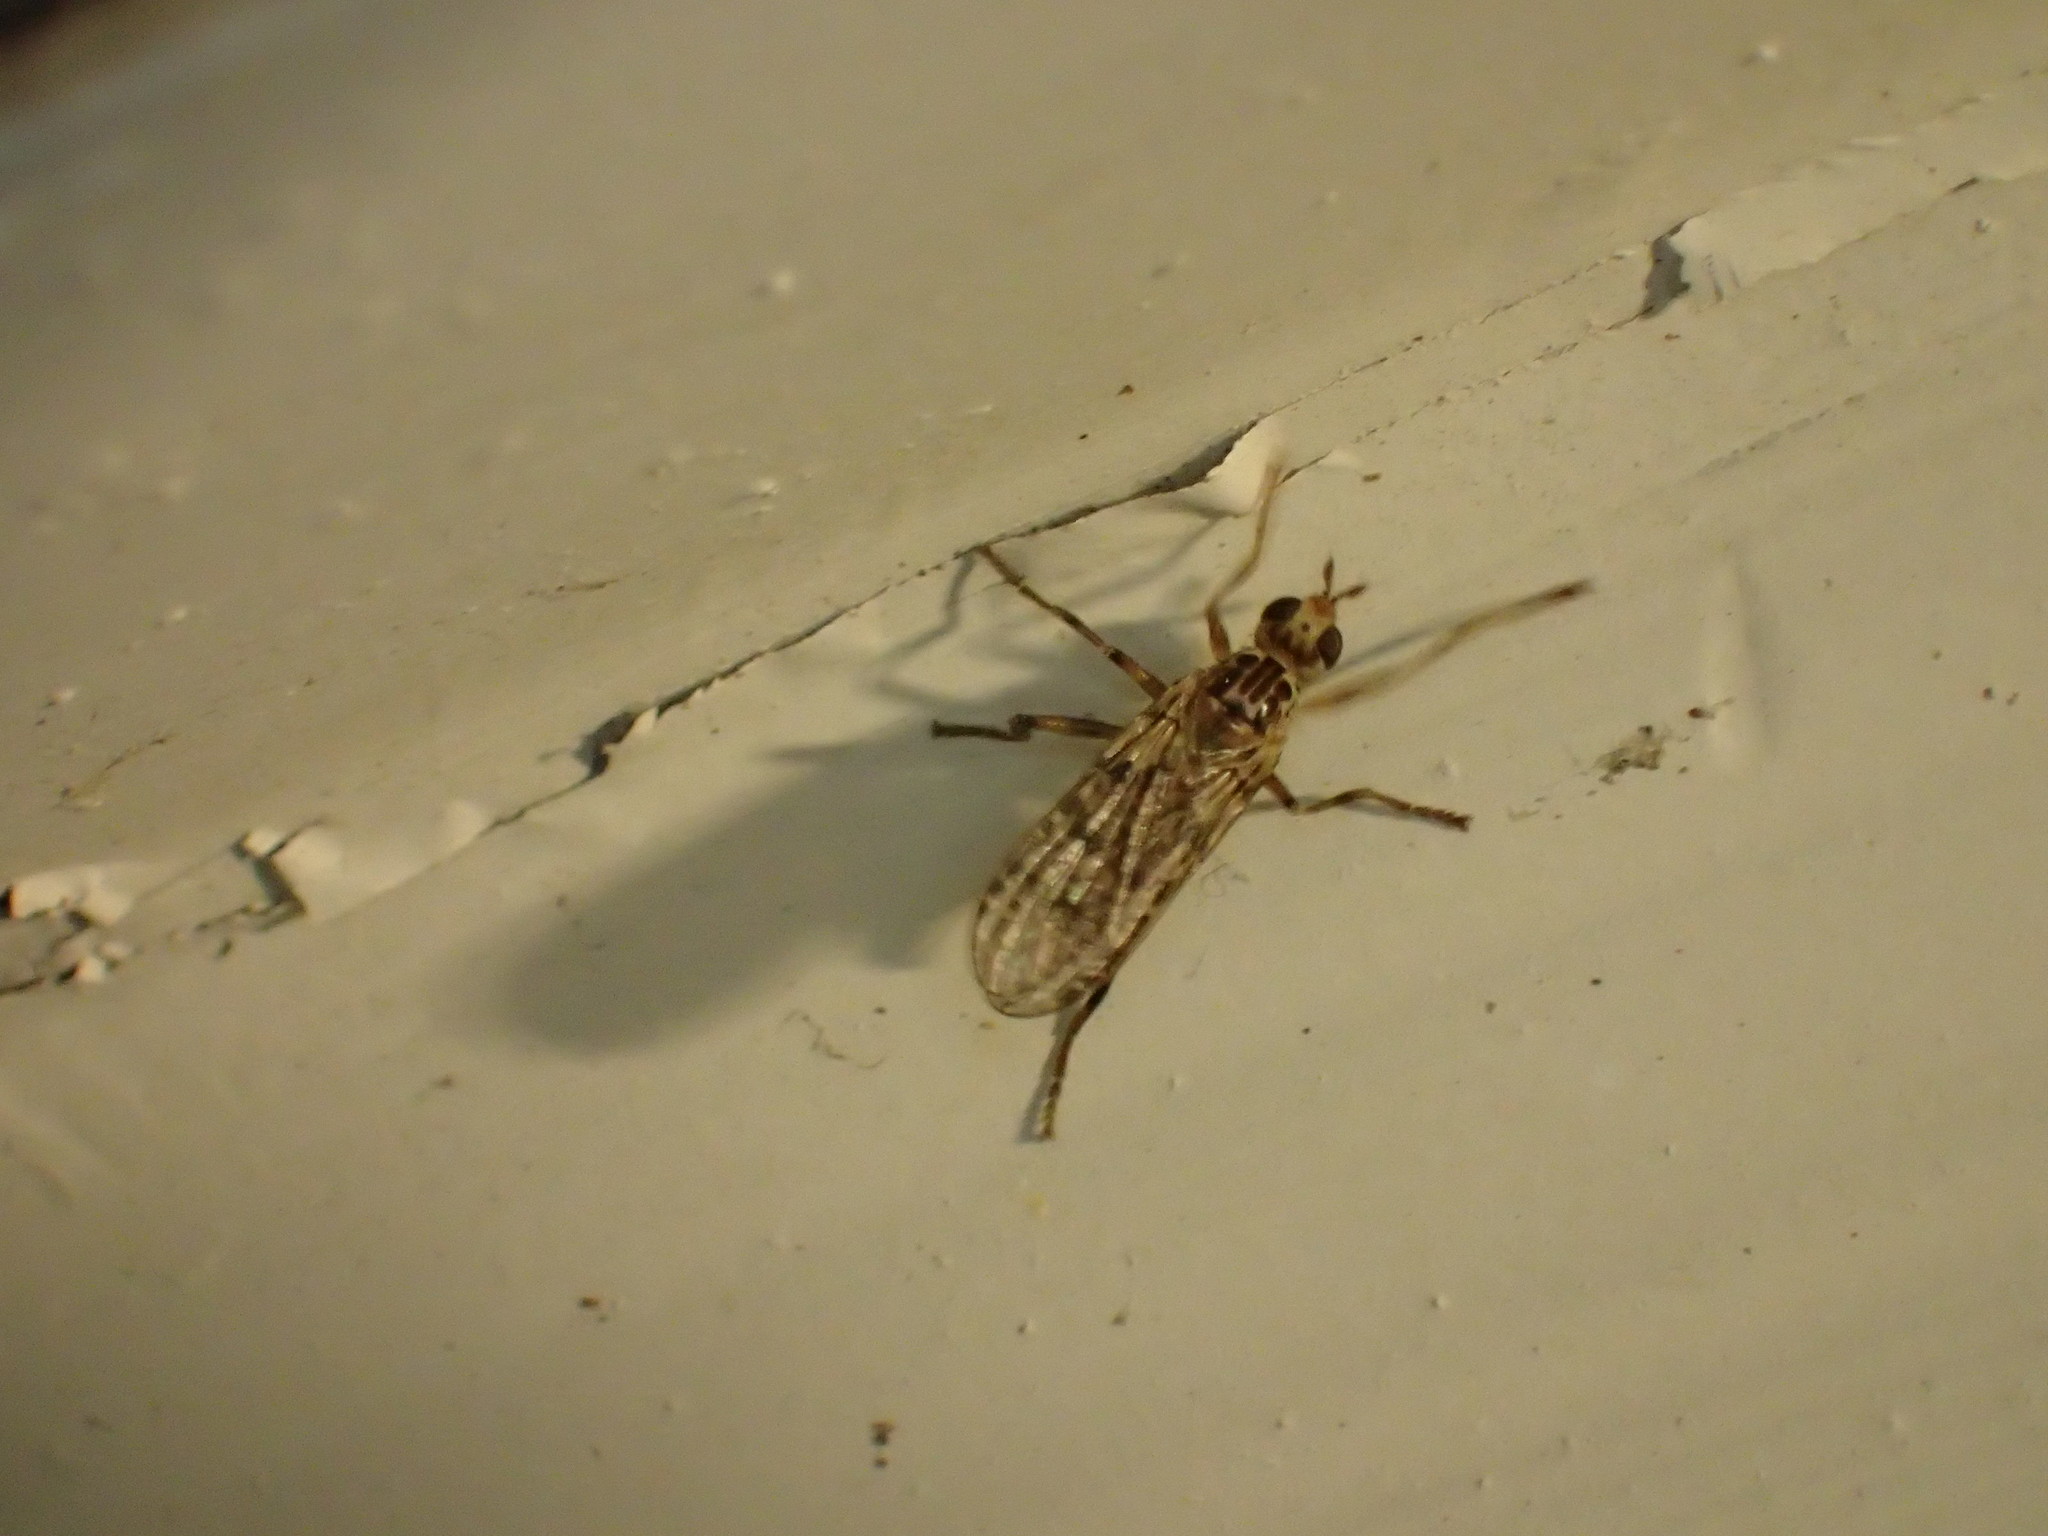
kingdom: Animalia
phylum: Arthropoda
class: Insecta
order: Diptera
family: Pyrgotidae
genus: Boreothrinax
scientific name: Boreothrinax
